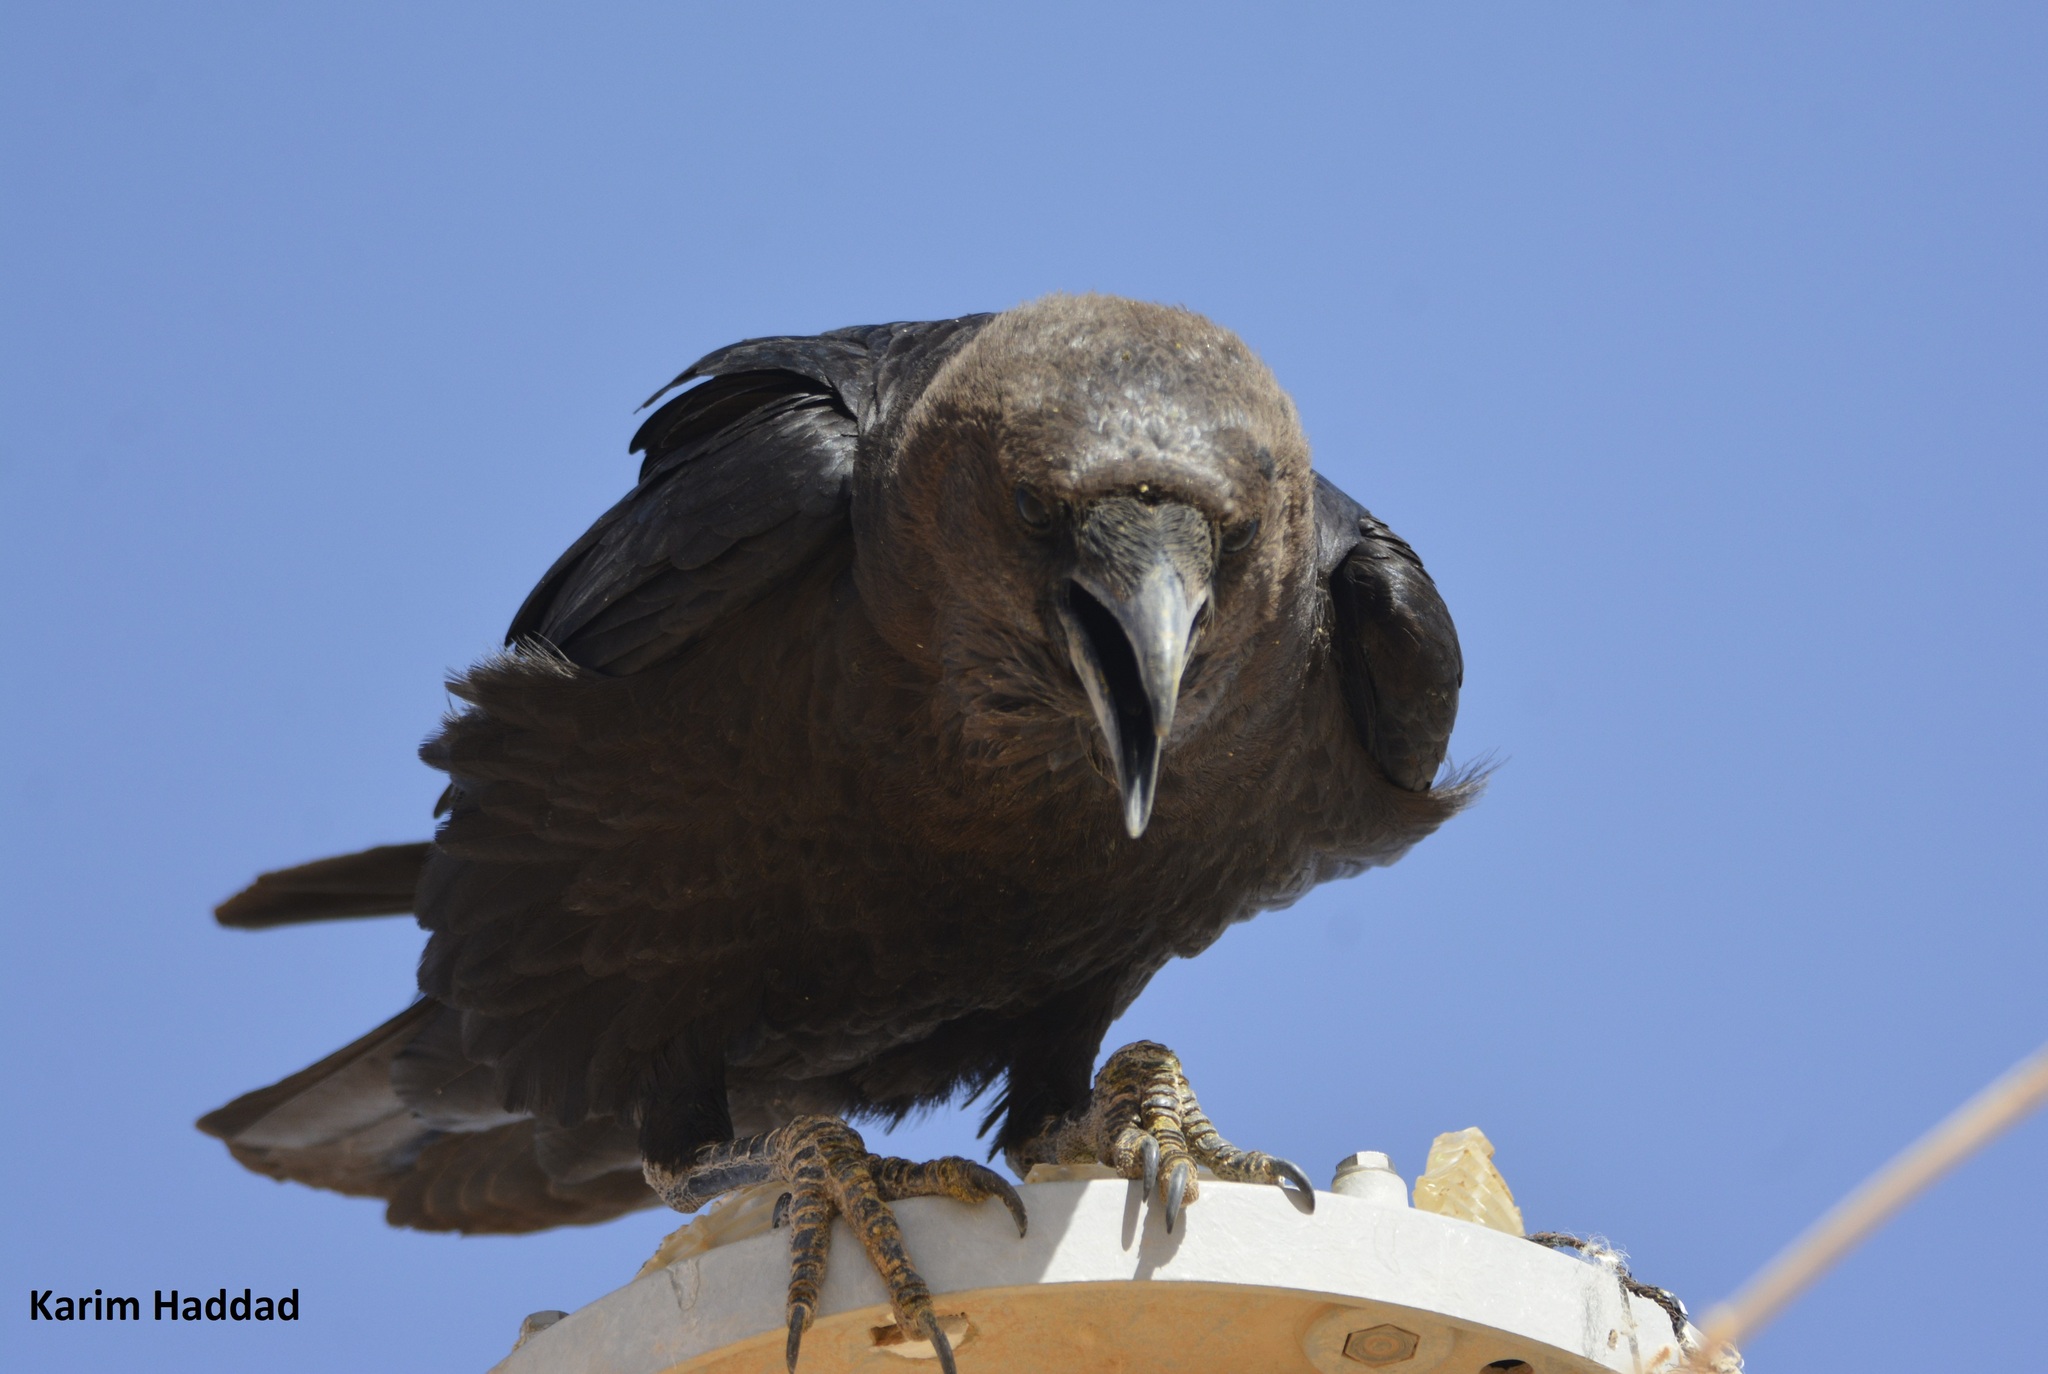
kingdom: Animalia
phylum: Chordata
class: Aves
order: Passeriformes
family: Corvidae
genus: Corvus
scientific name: Corvus ruficollis
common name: Brown-necked raven
